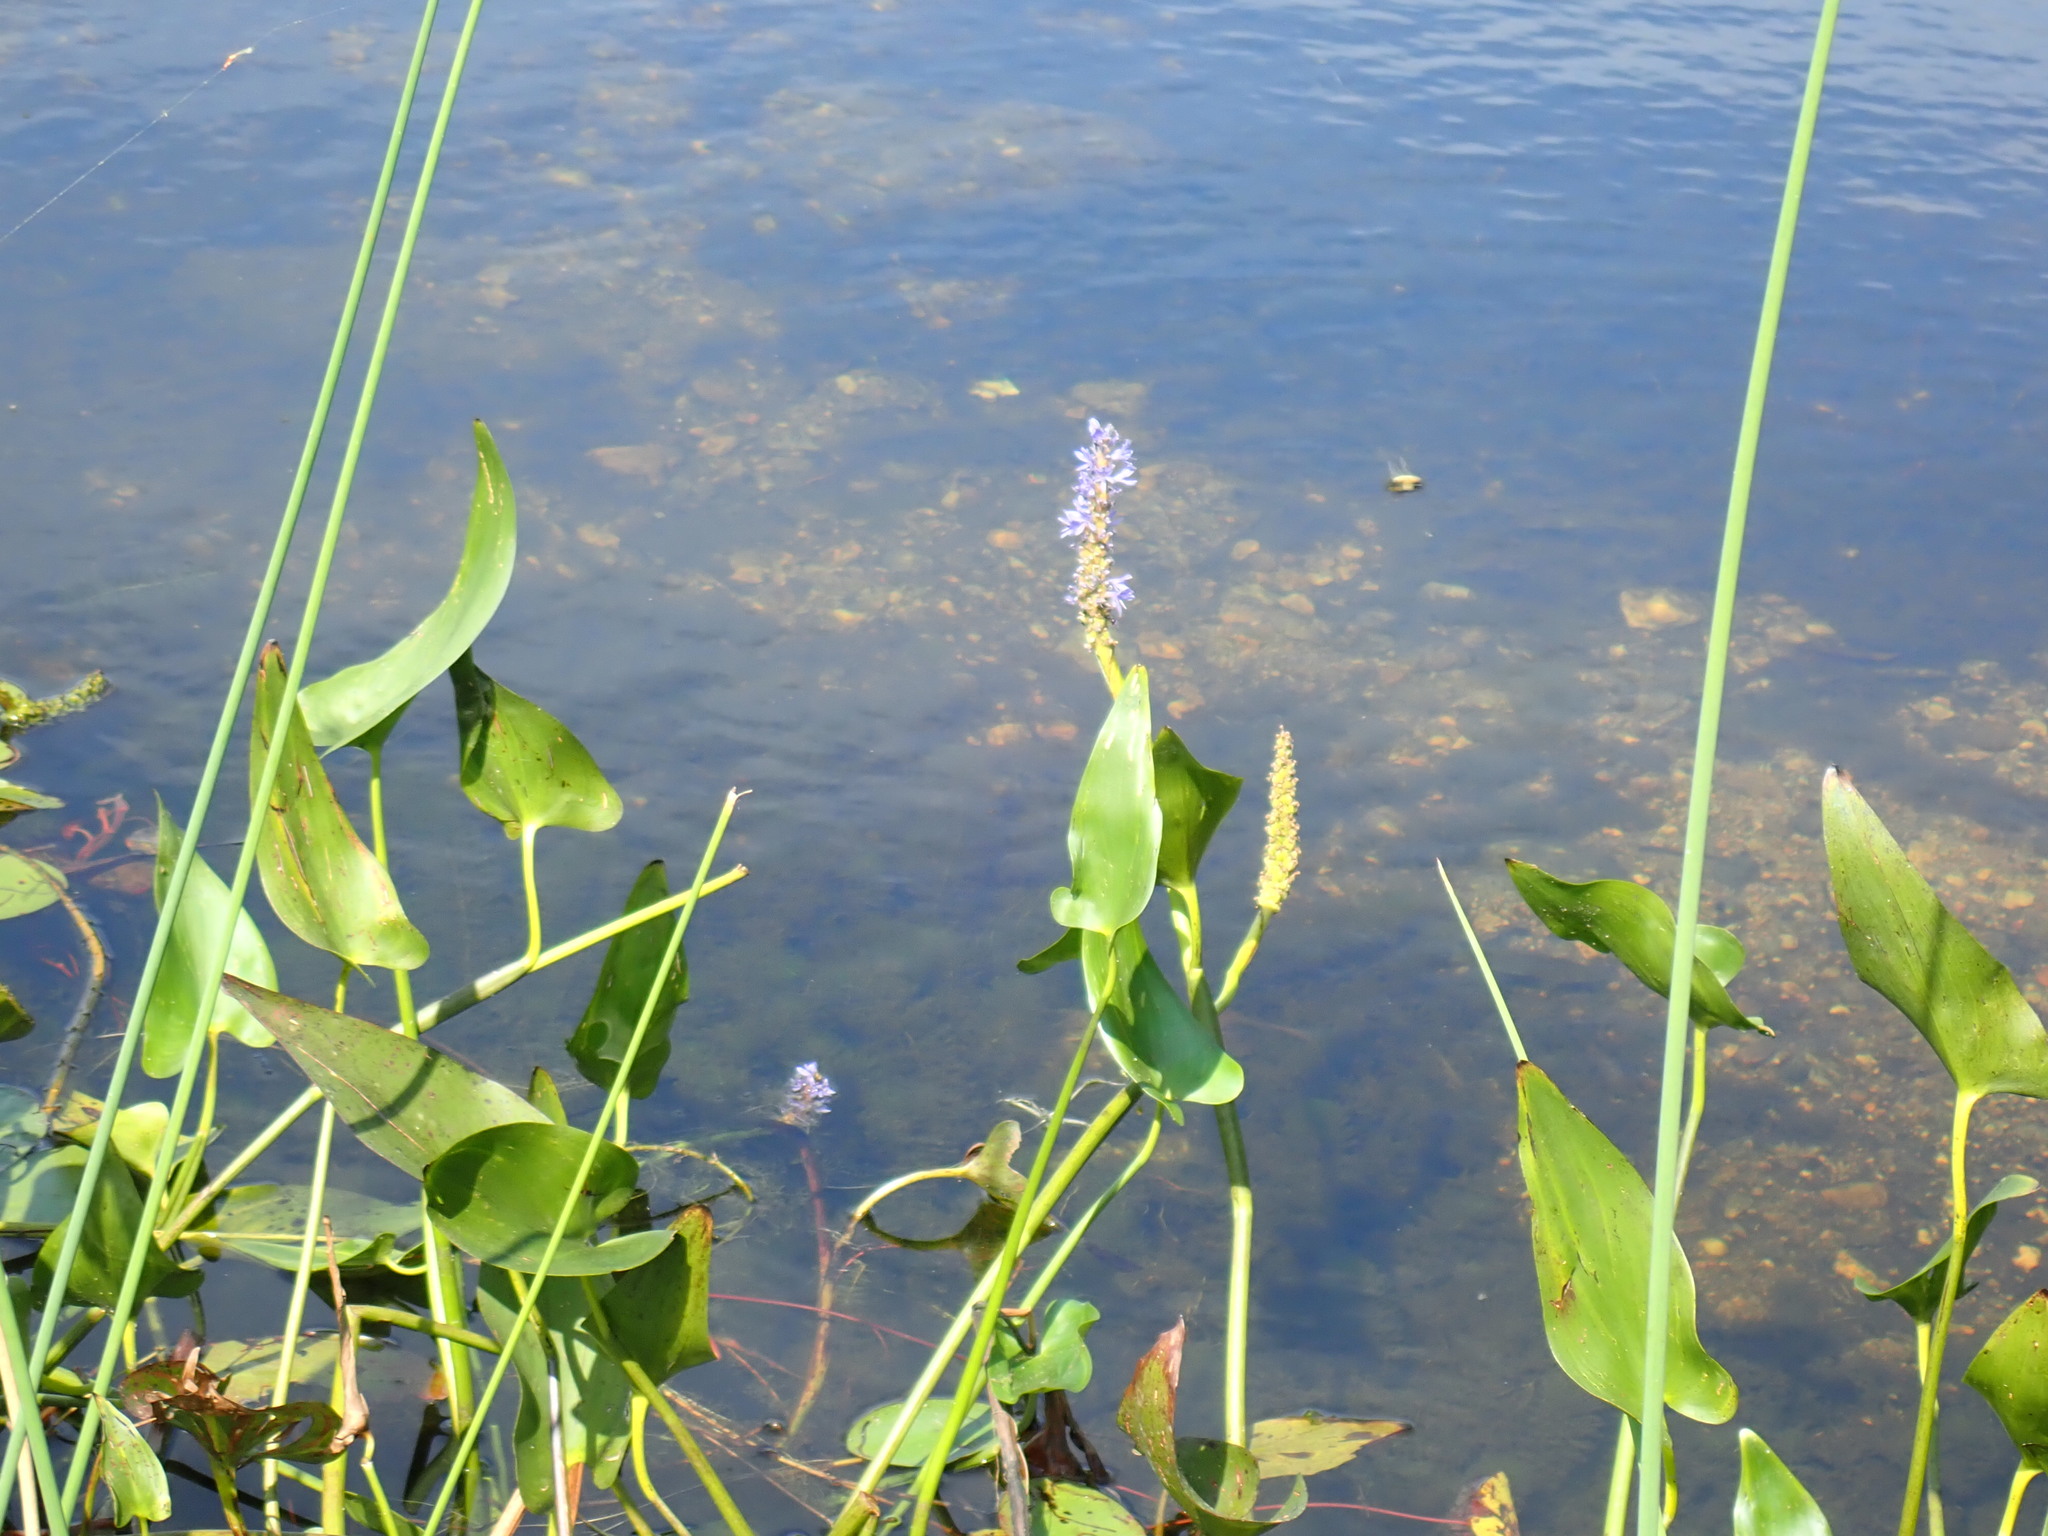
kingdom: Plantae
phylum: Tracheophyta
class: Liliopsida
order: Commelinales
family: Pontederiaceae
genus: Pontederia
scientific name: Pontederia cordata
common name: Pickerelweed
